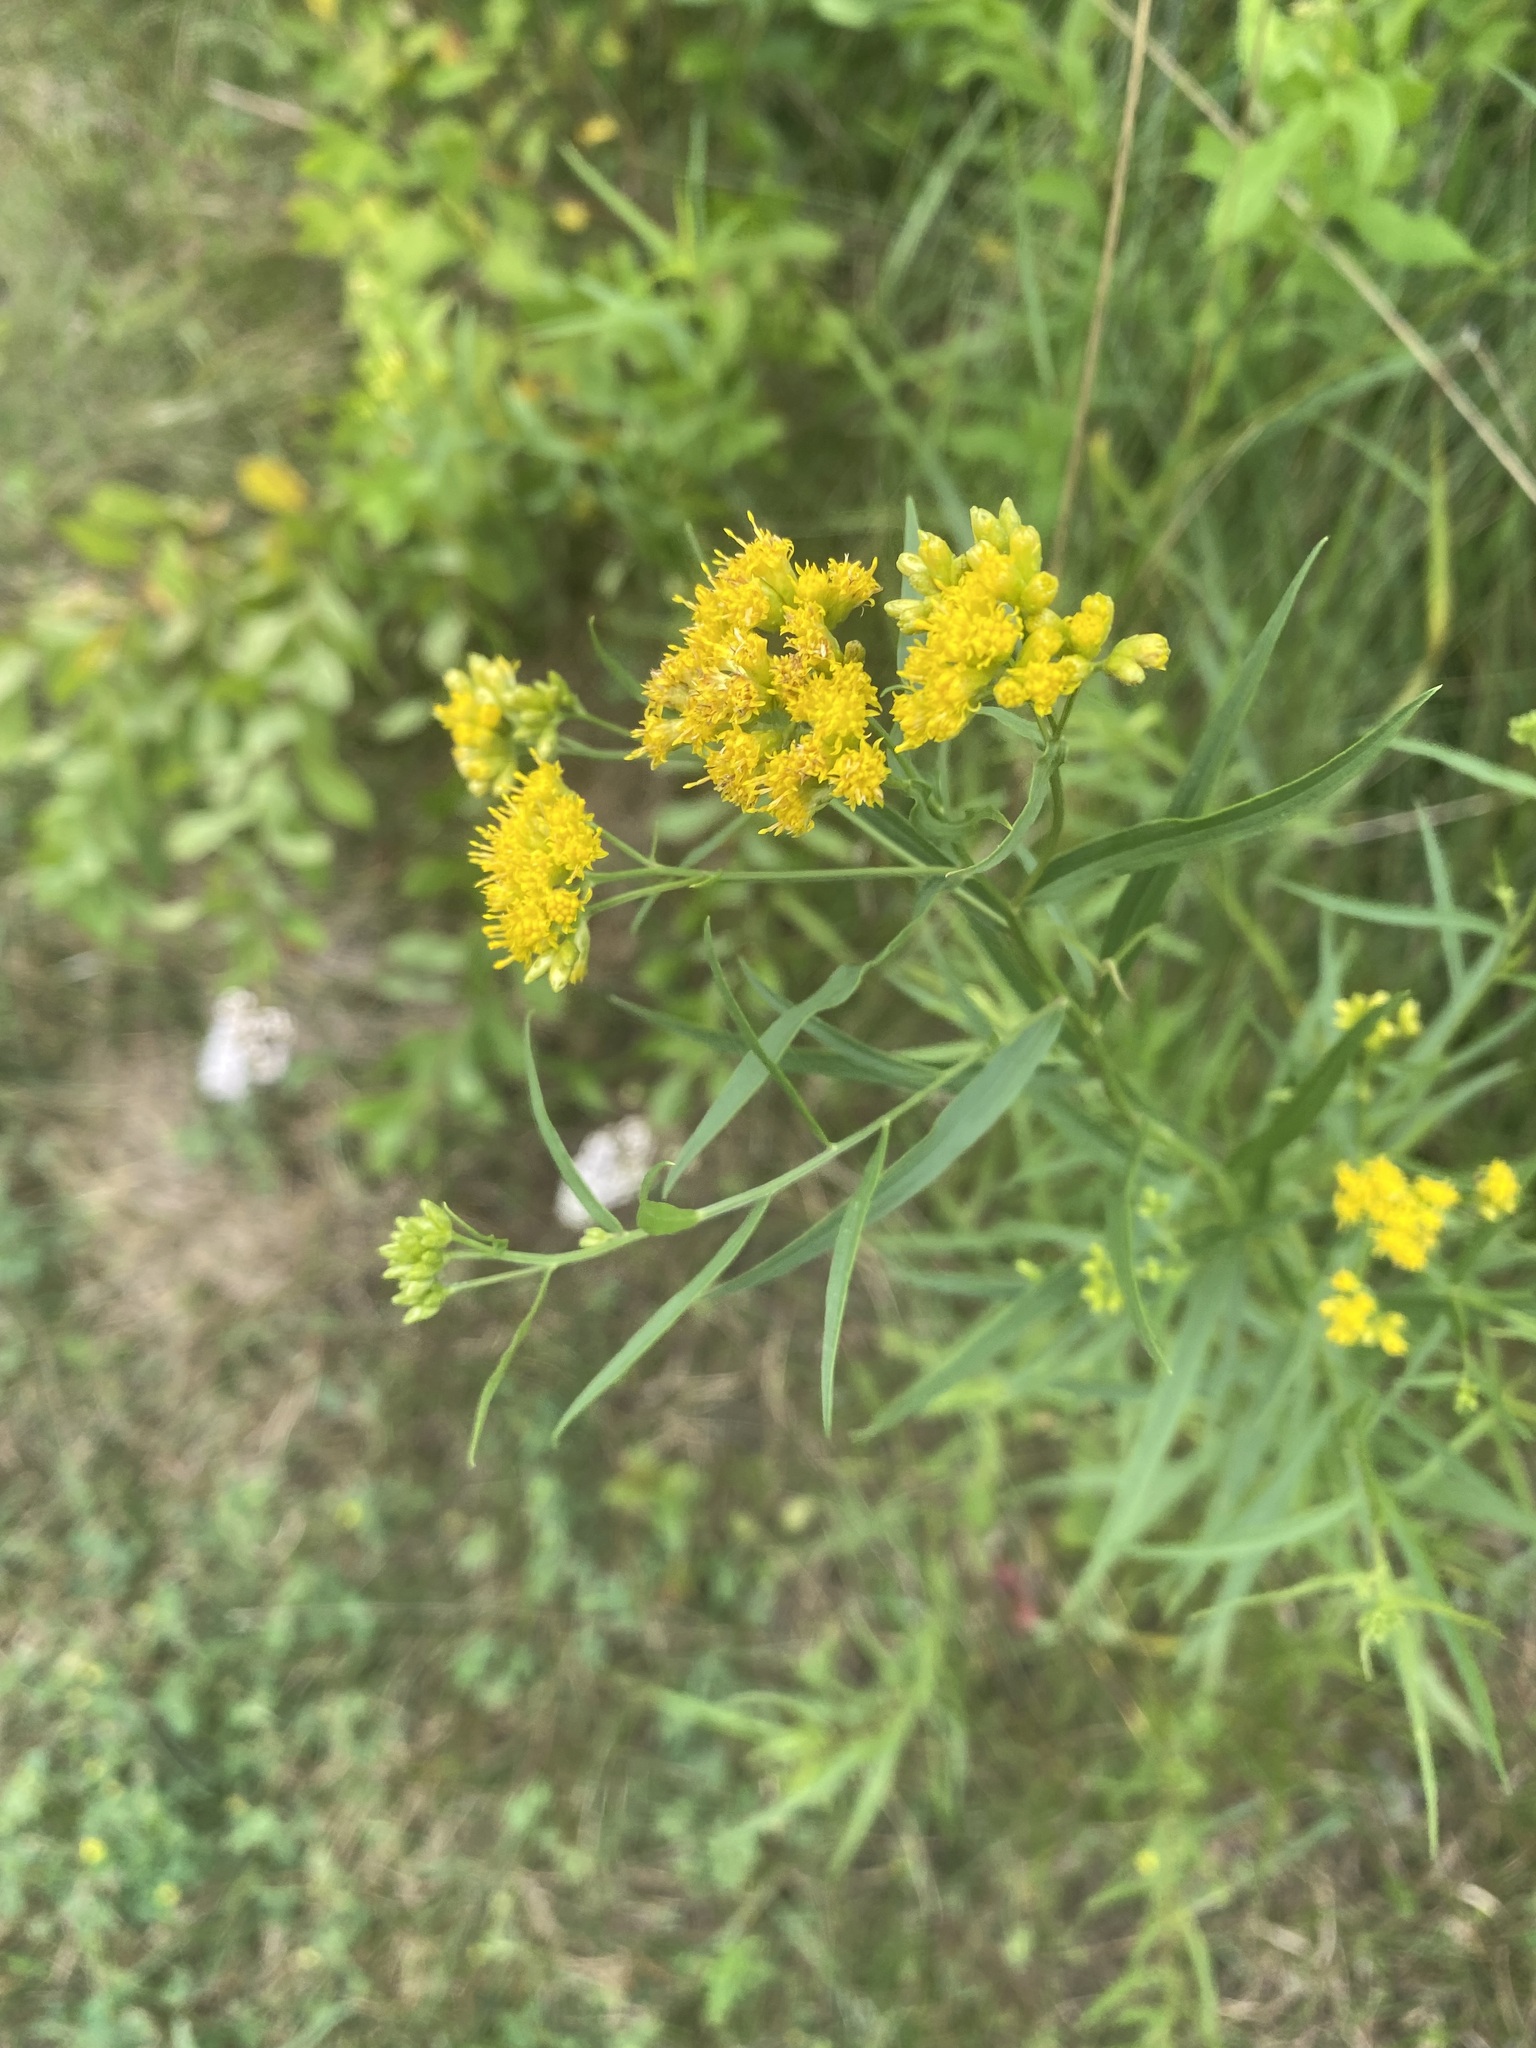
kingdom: Plantae
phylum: Tracheophyta
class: Magnoliopsida
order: Asterales
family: Asteraceae
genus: Euthamia
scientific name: Euthamia graminifolia
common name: Common goldentop
